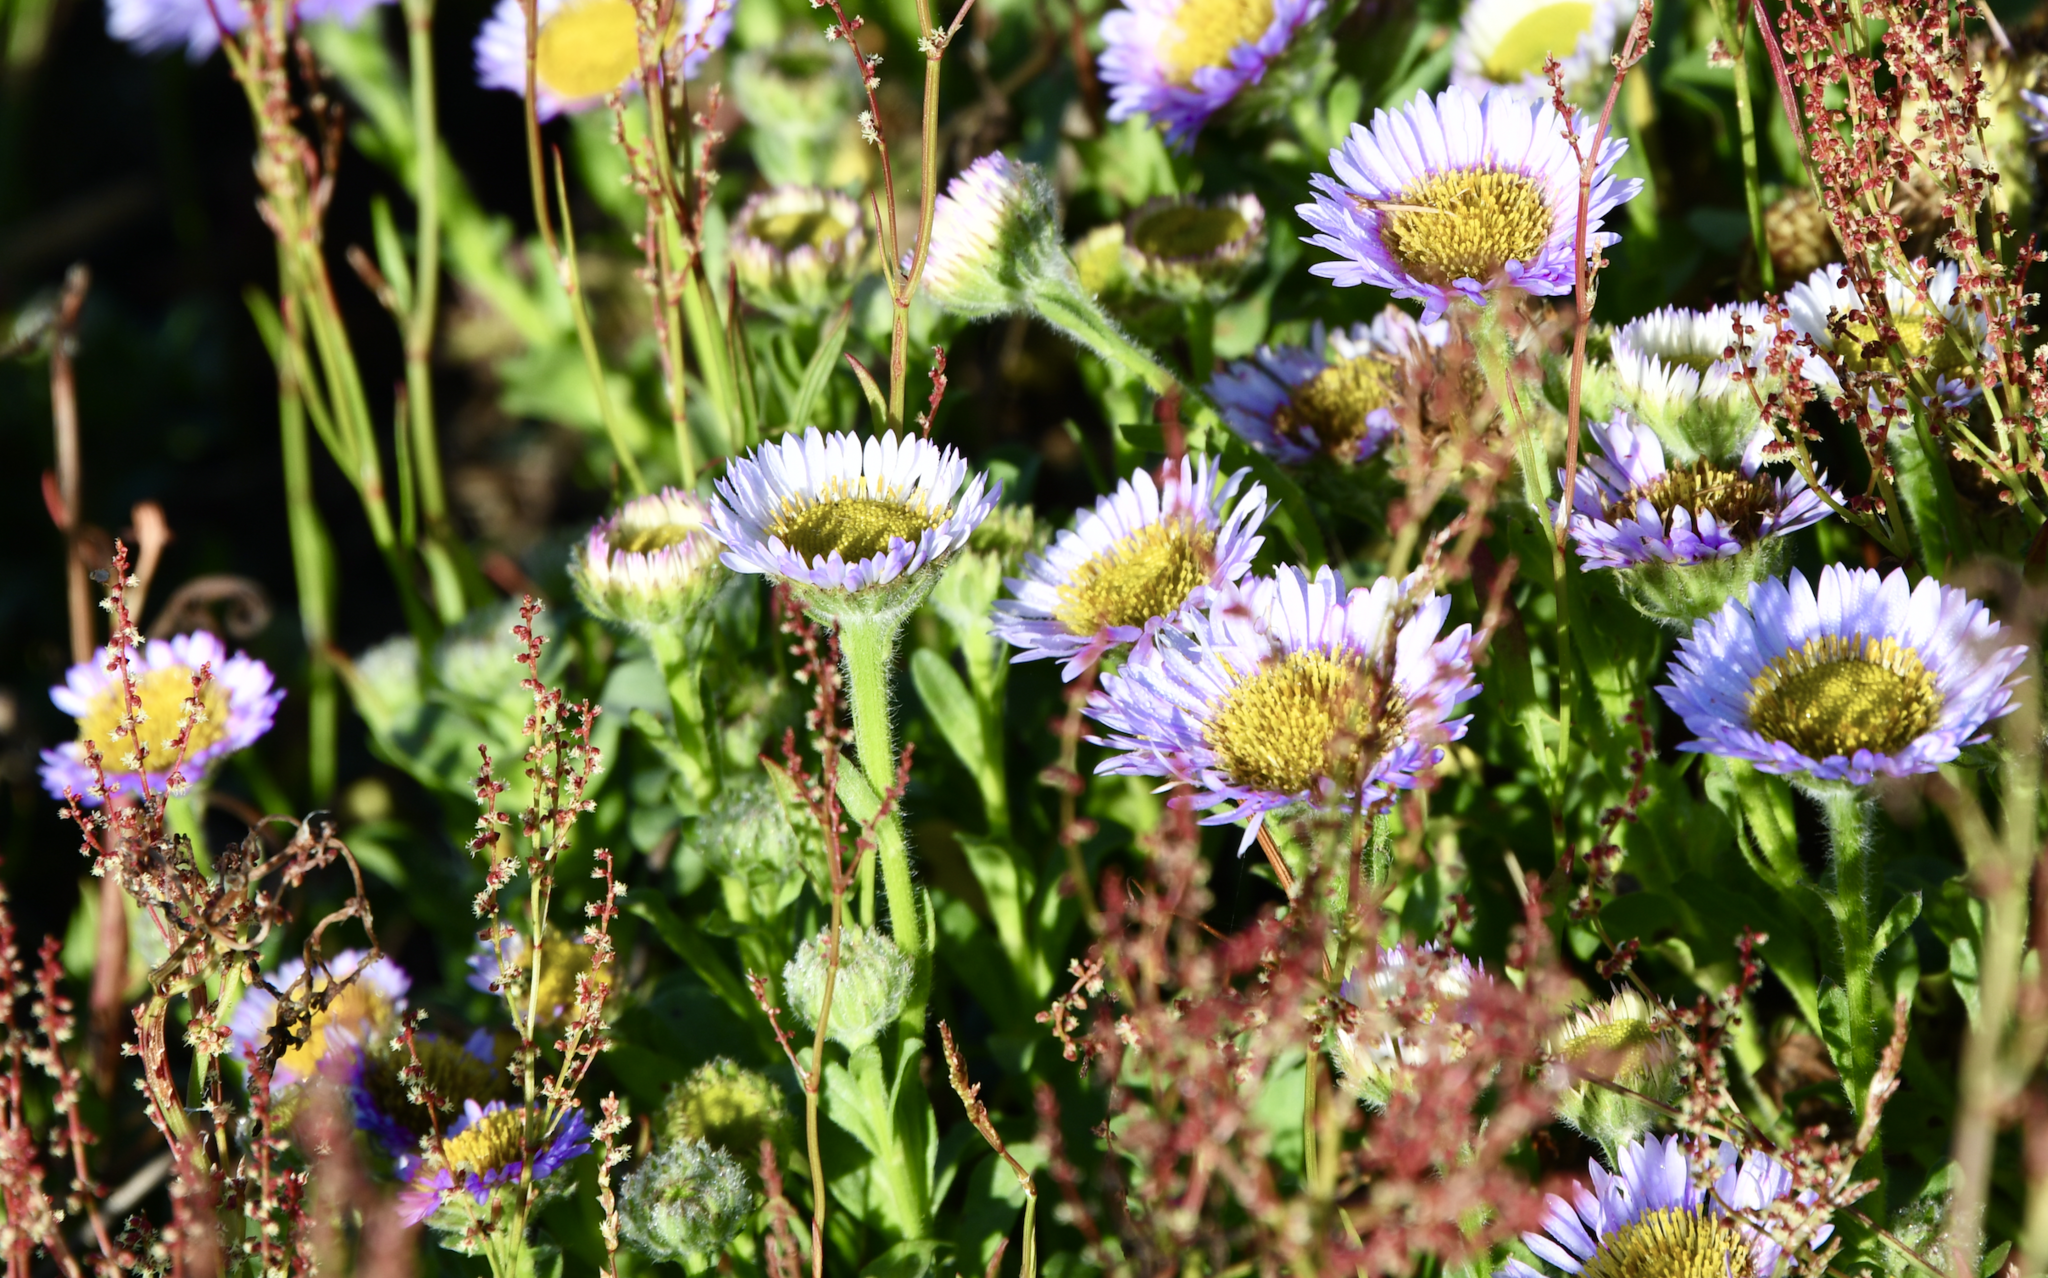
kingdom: Plantae
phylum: Tracheophyta
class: Magnoliopsida
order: Asterales
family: Asteraceae
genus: Erigeron
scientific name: Erigeron glaucus
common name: Seaside daisy
